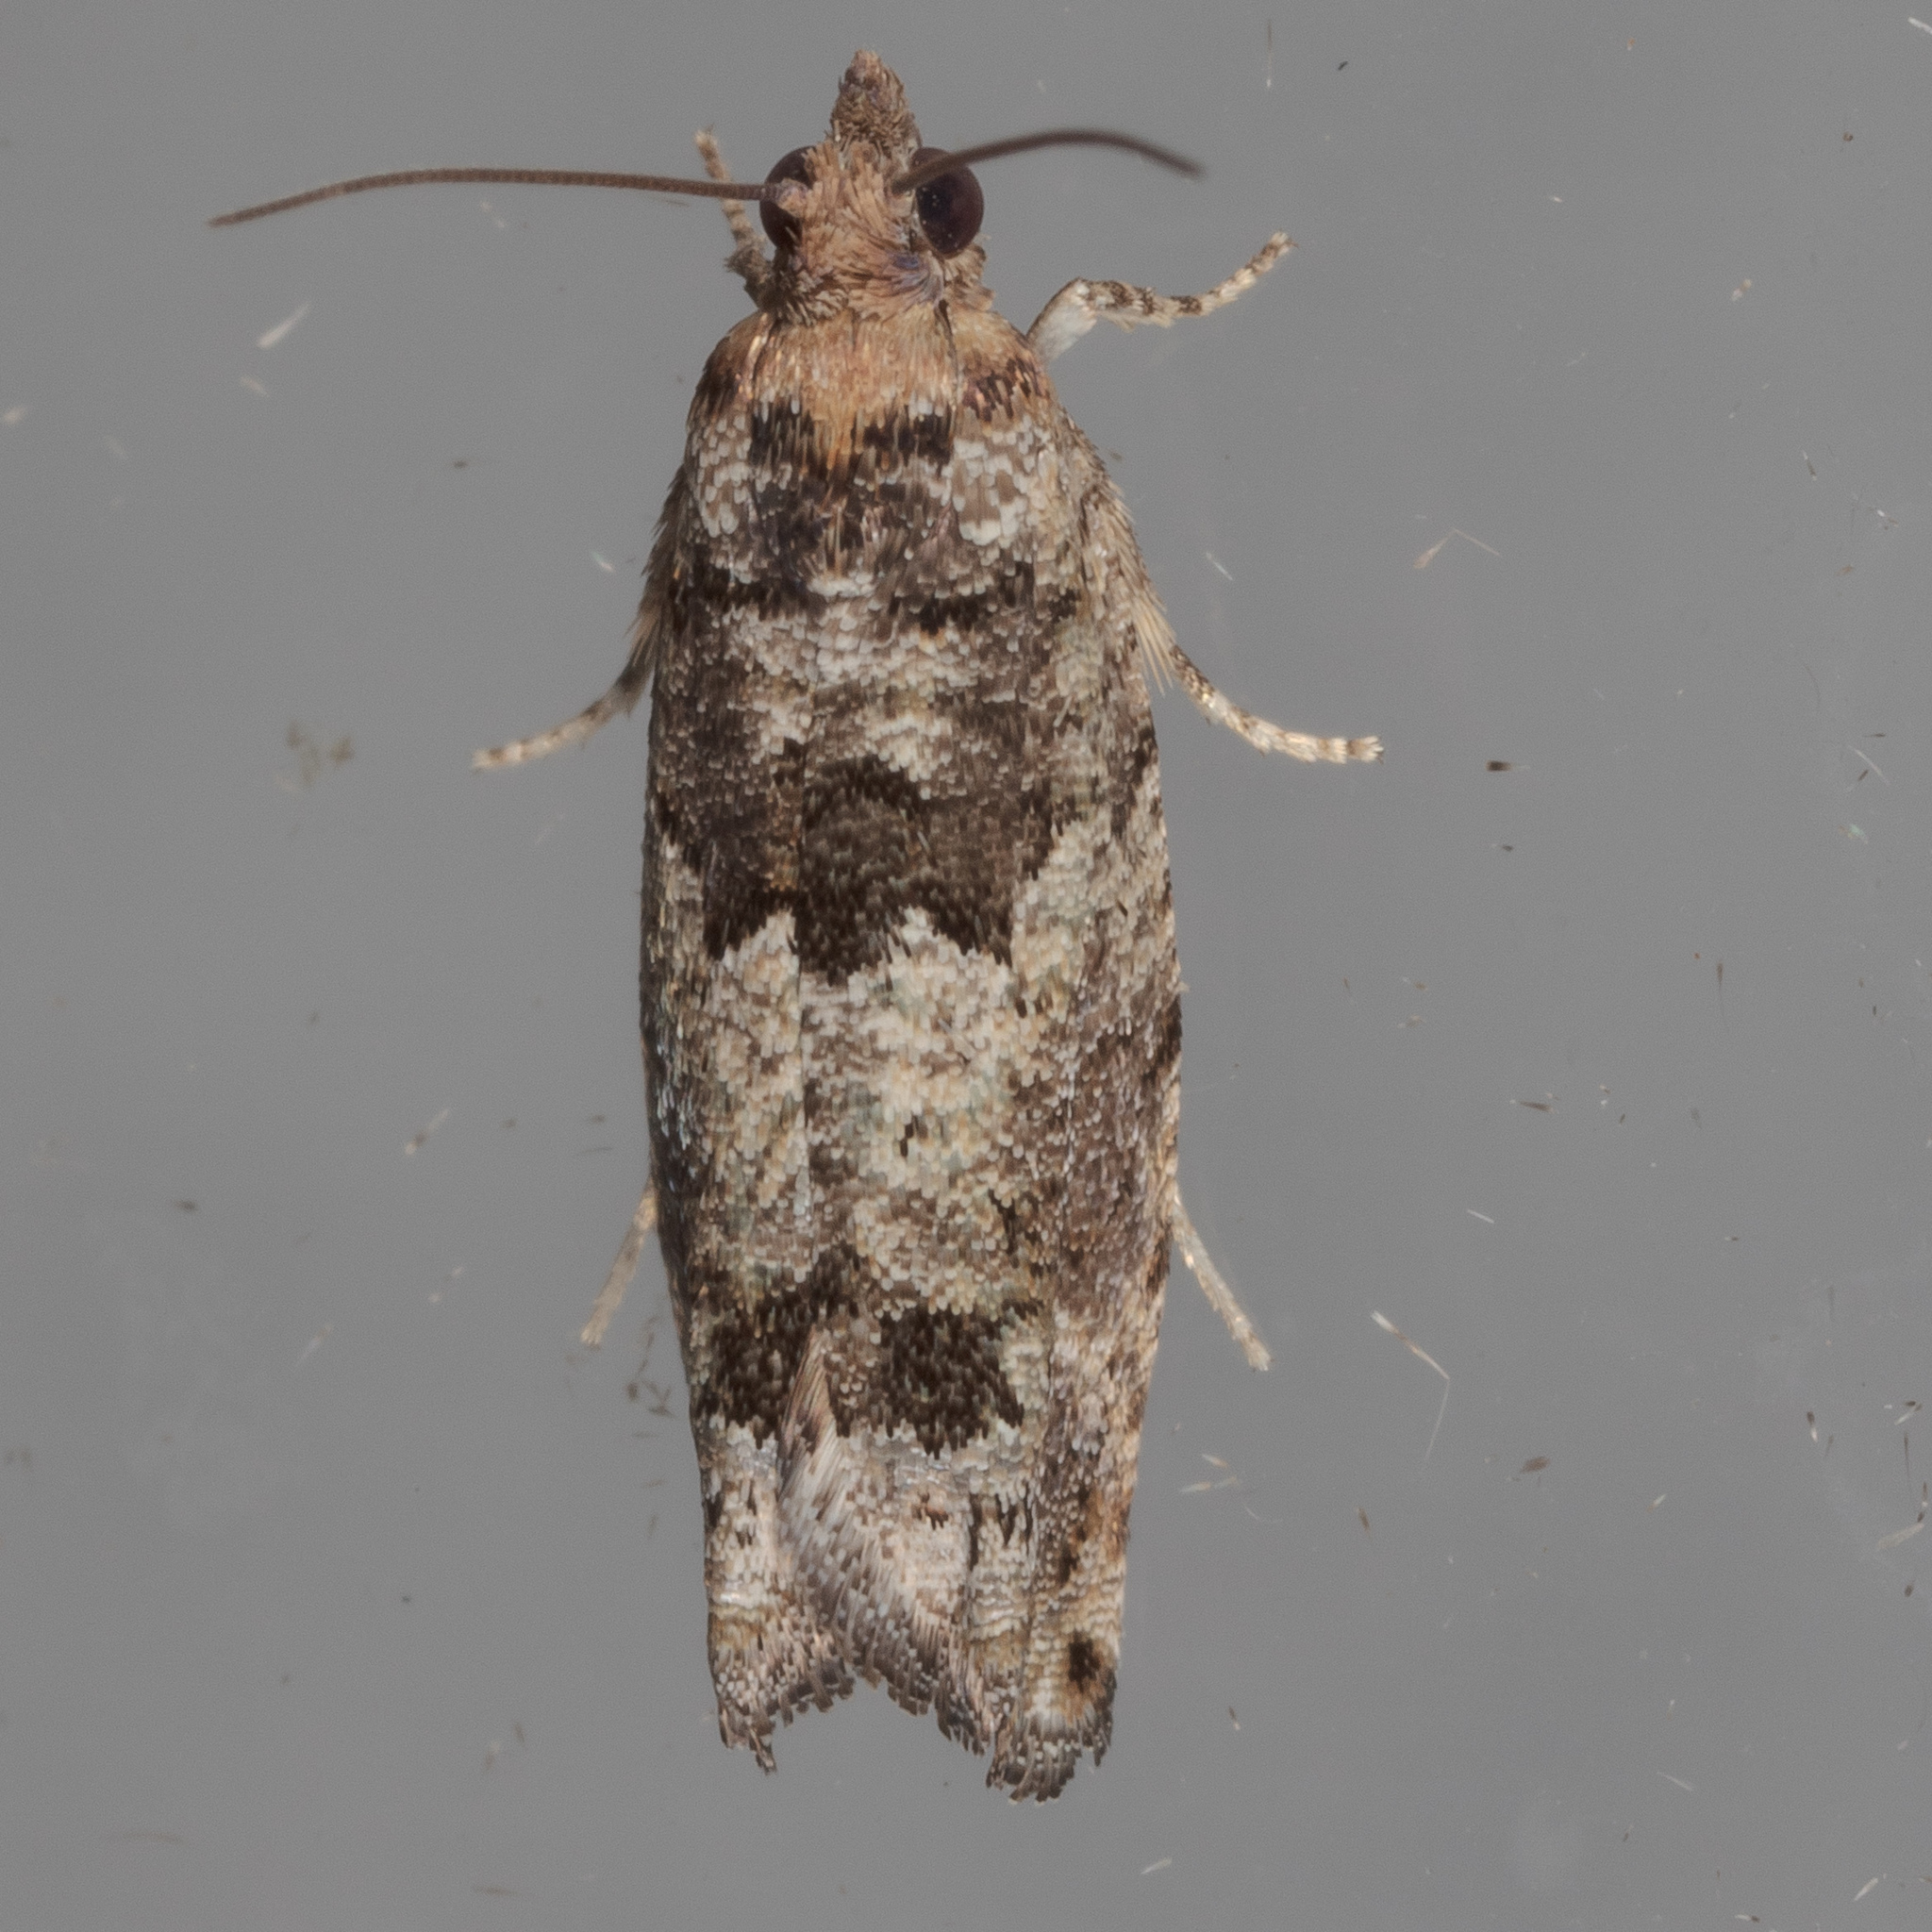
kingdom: Animalia
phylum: Arthropoda
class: Insecta
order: Lepidoptera
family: Tortricidae
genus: Pseudexentera
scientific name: Pseudexentera knudsoni
